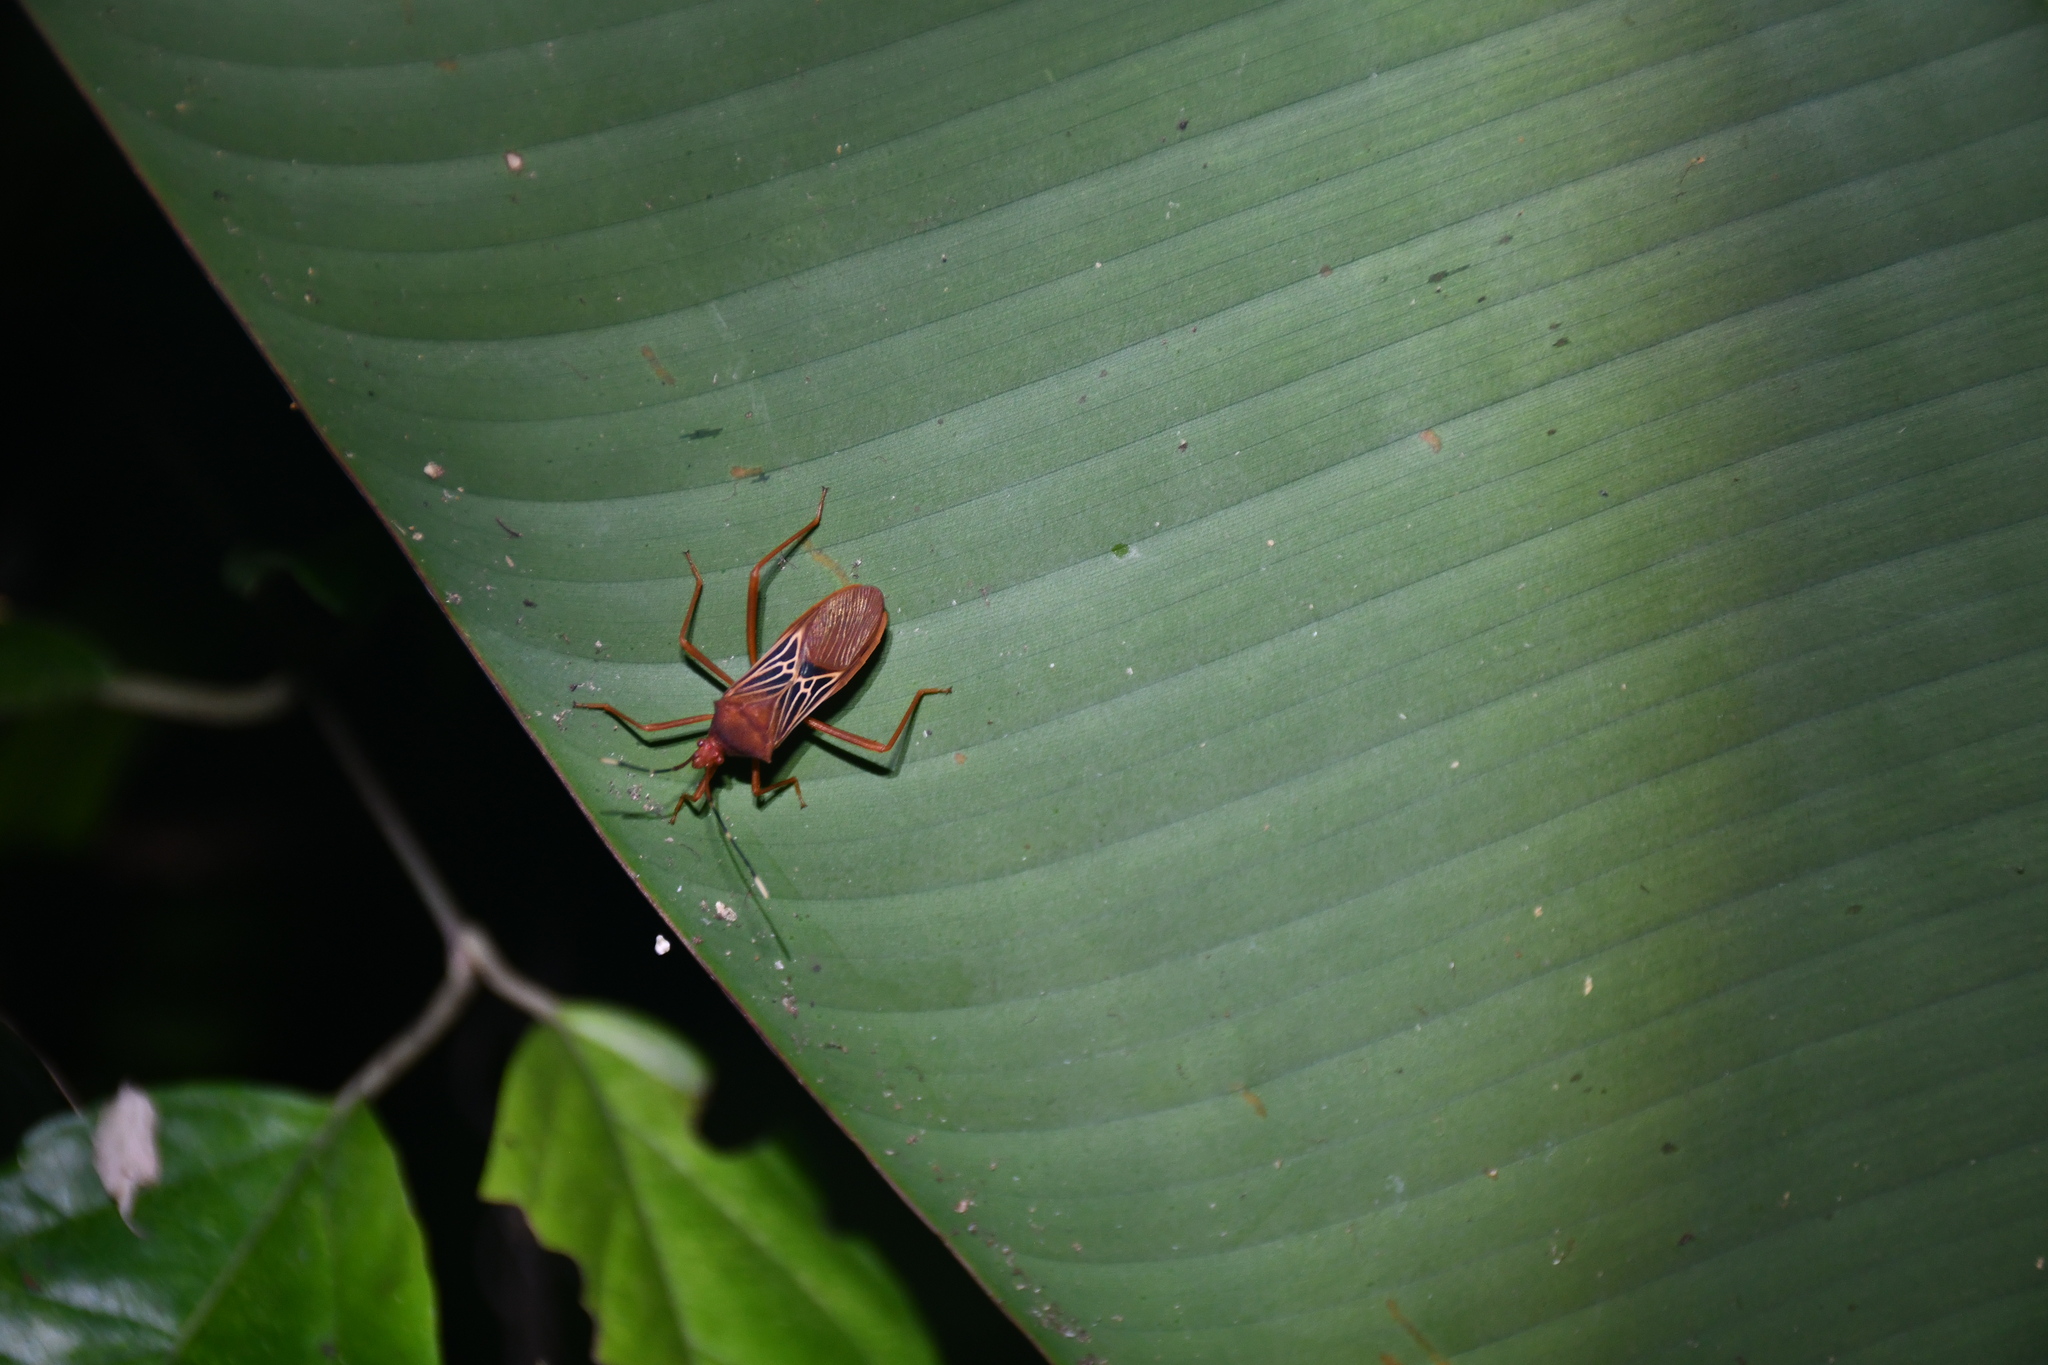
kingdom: Animalia
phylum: Arthropoda
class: Insecta
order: Hemiptera
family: Coreidae
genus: Leptoscelis
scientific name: Leptoscelis centralis
